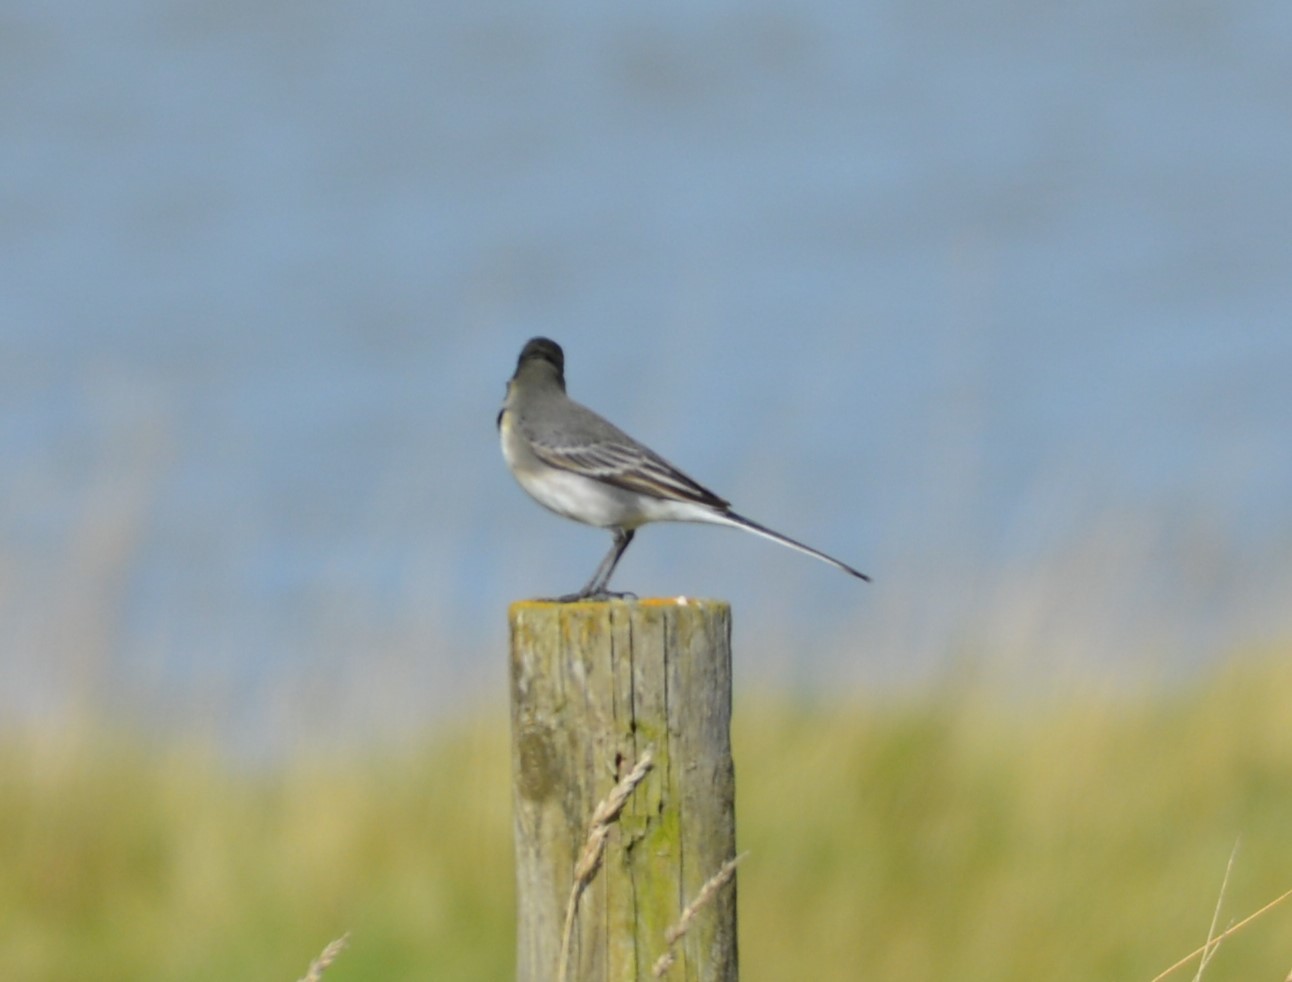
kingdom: Animalia
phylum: Chordata
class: Aves
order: Passeriformes
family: Motacillidae
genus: Motacilla
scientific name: Motacilla alba
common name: White wagtail
